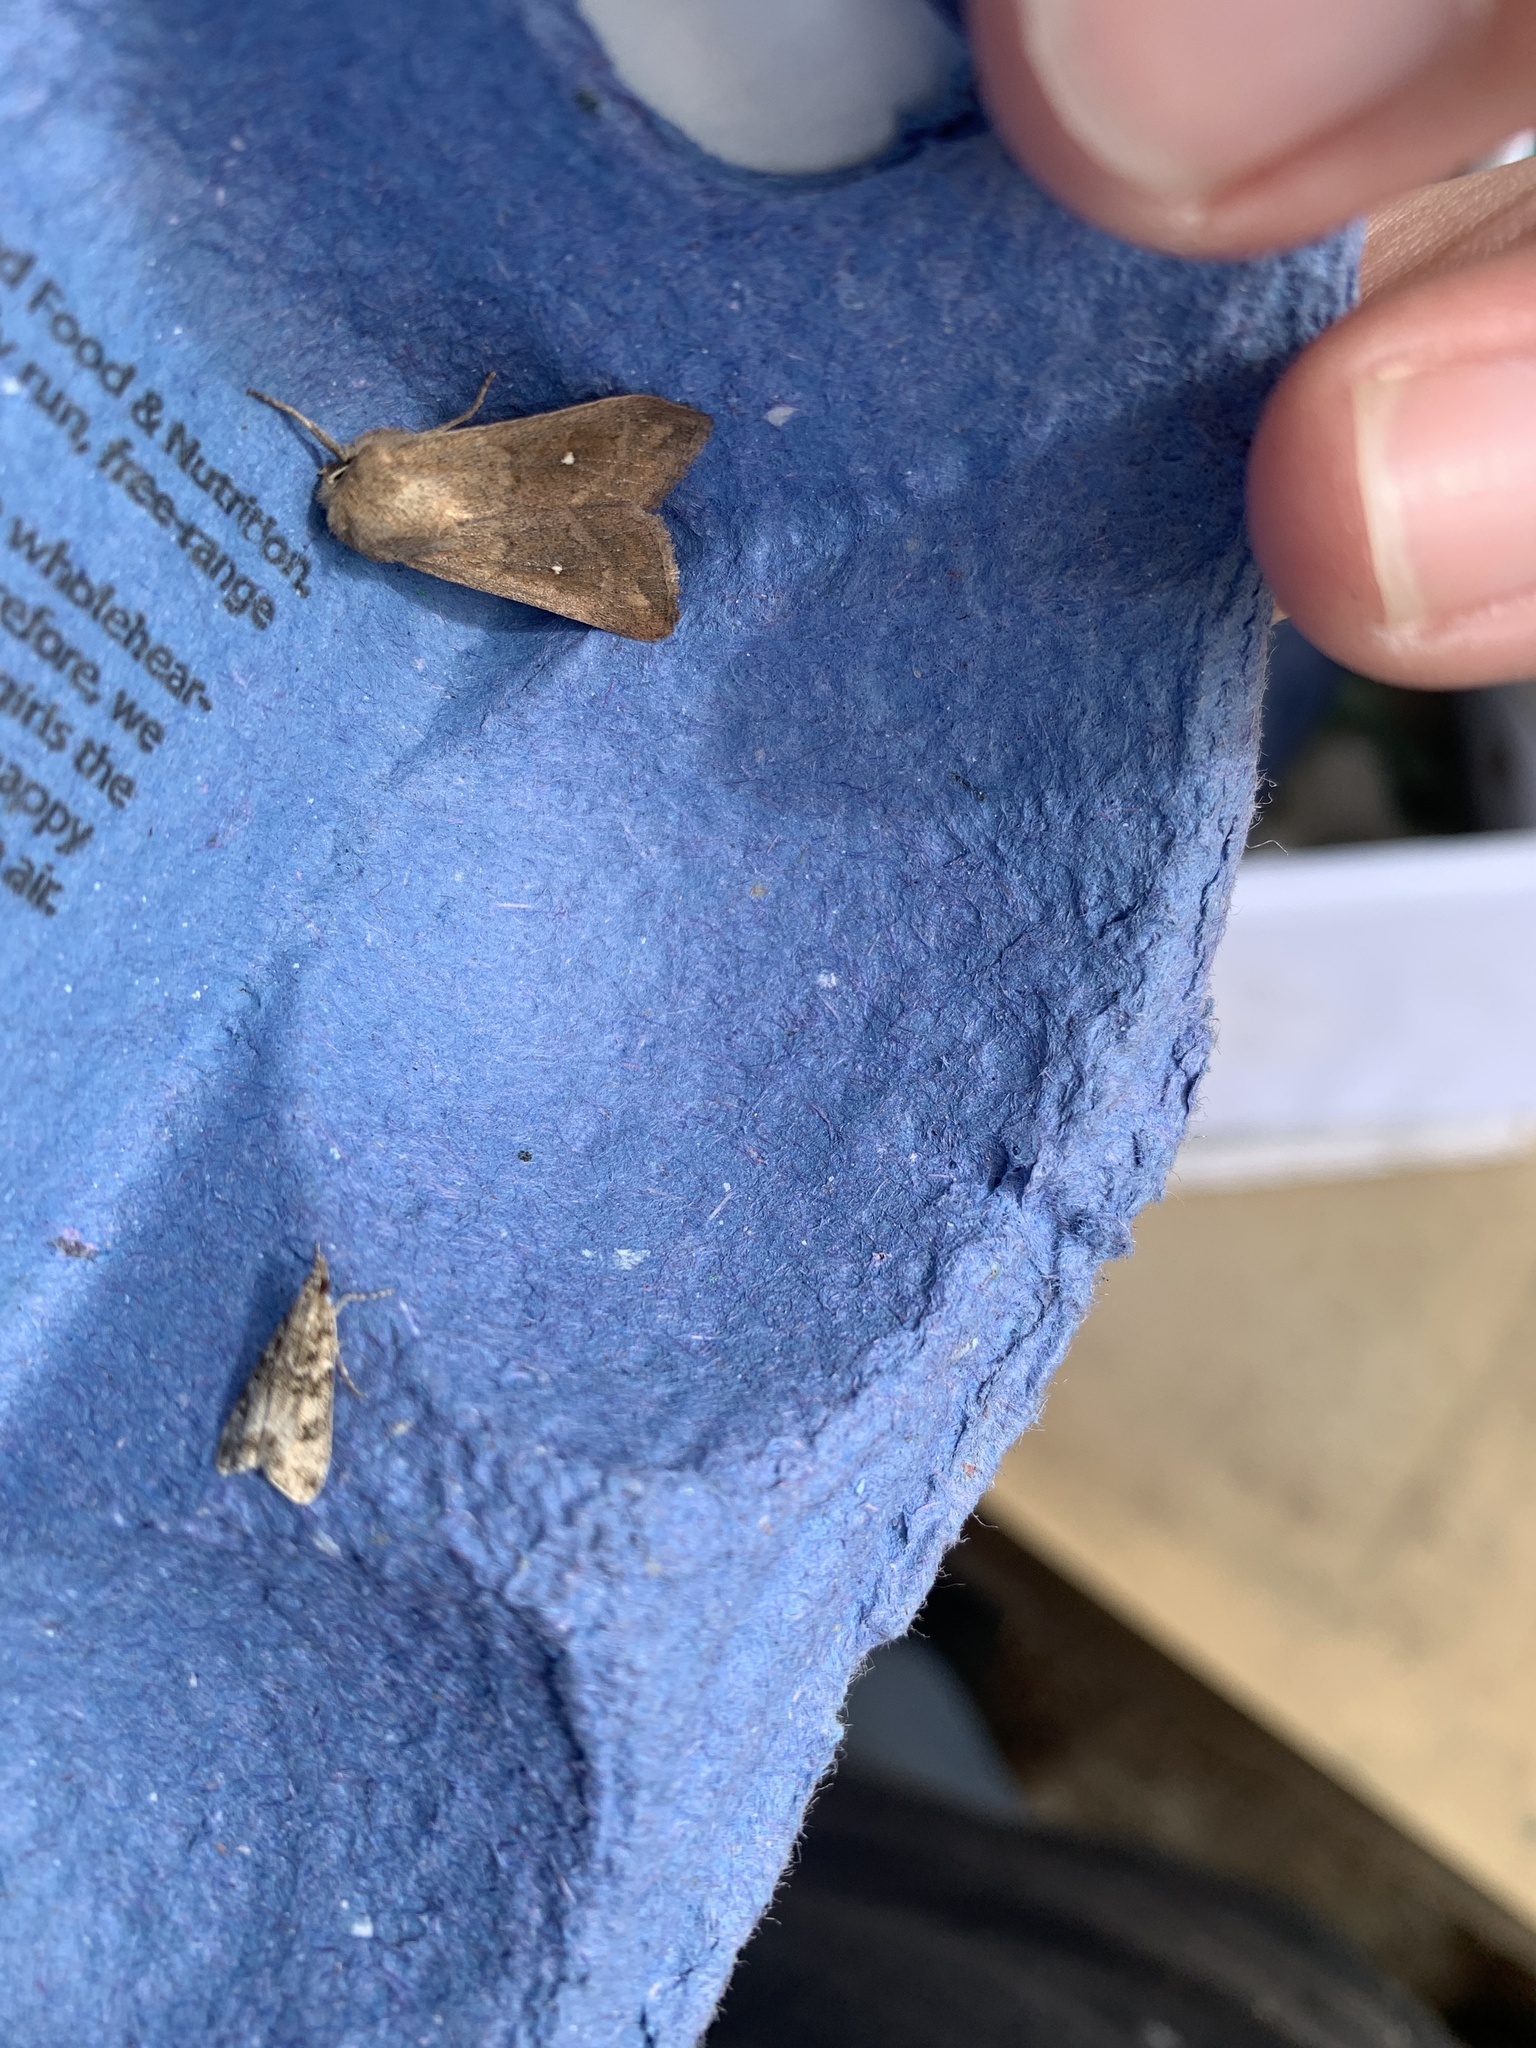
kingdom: Animalia
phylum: Arthropoda
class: Insecta
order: Lepidoptera
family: Noctuidae
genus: Mythimna
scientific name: Mythimna albipuncta
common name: White-point
